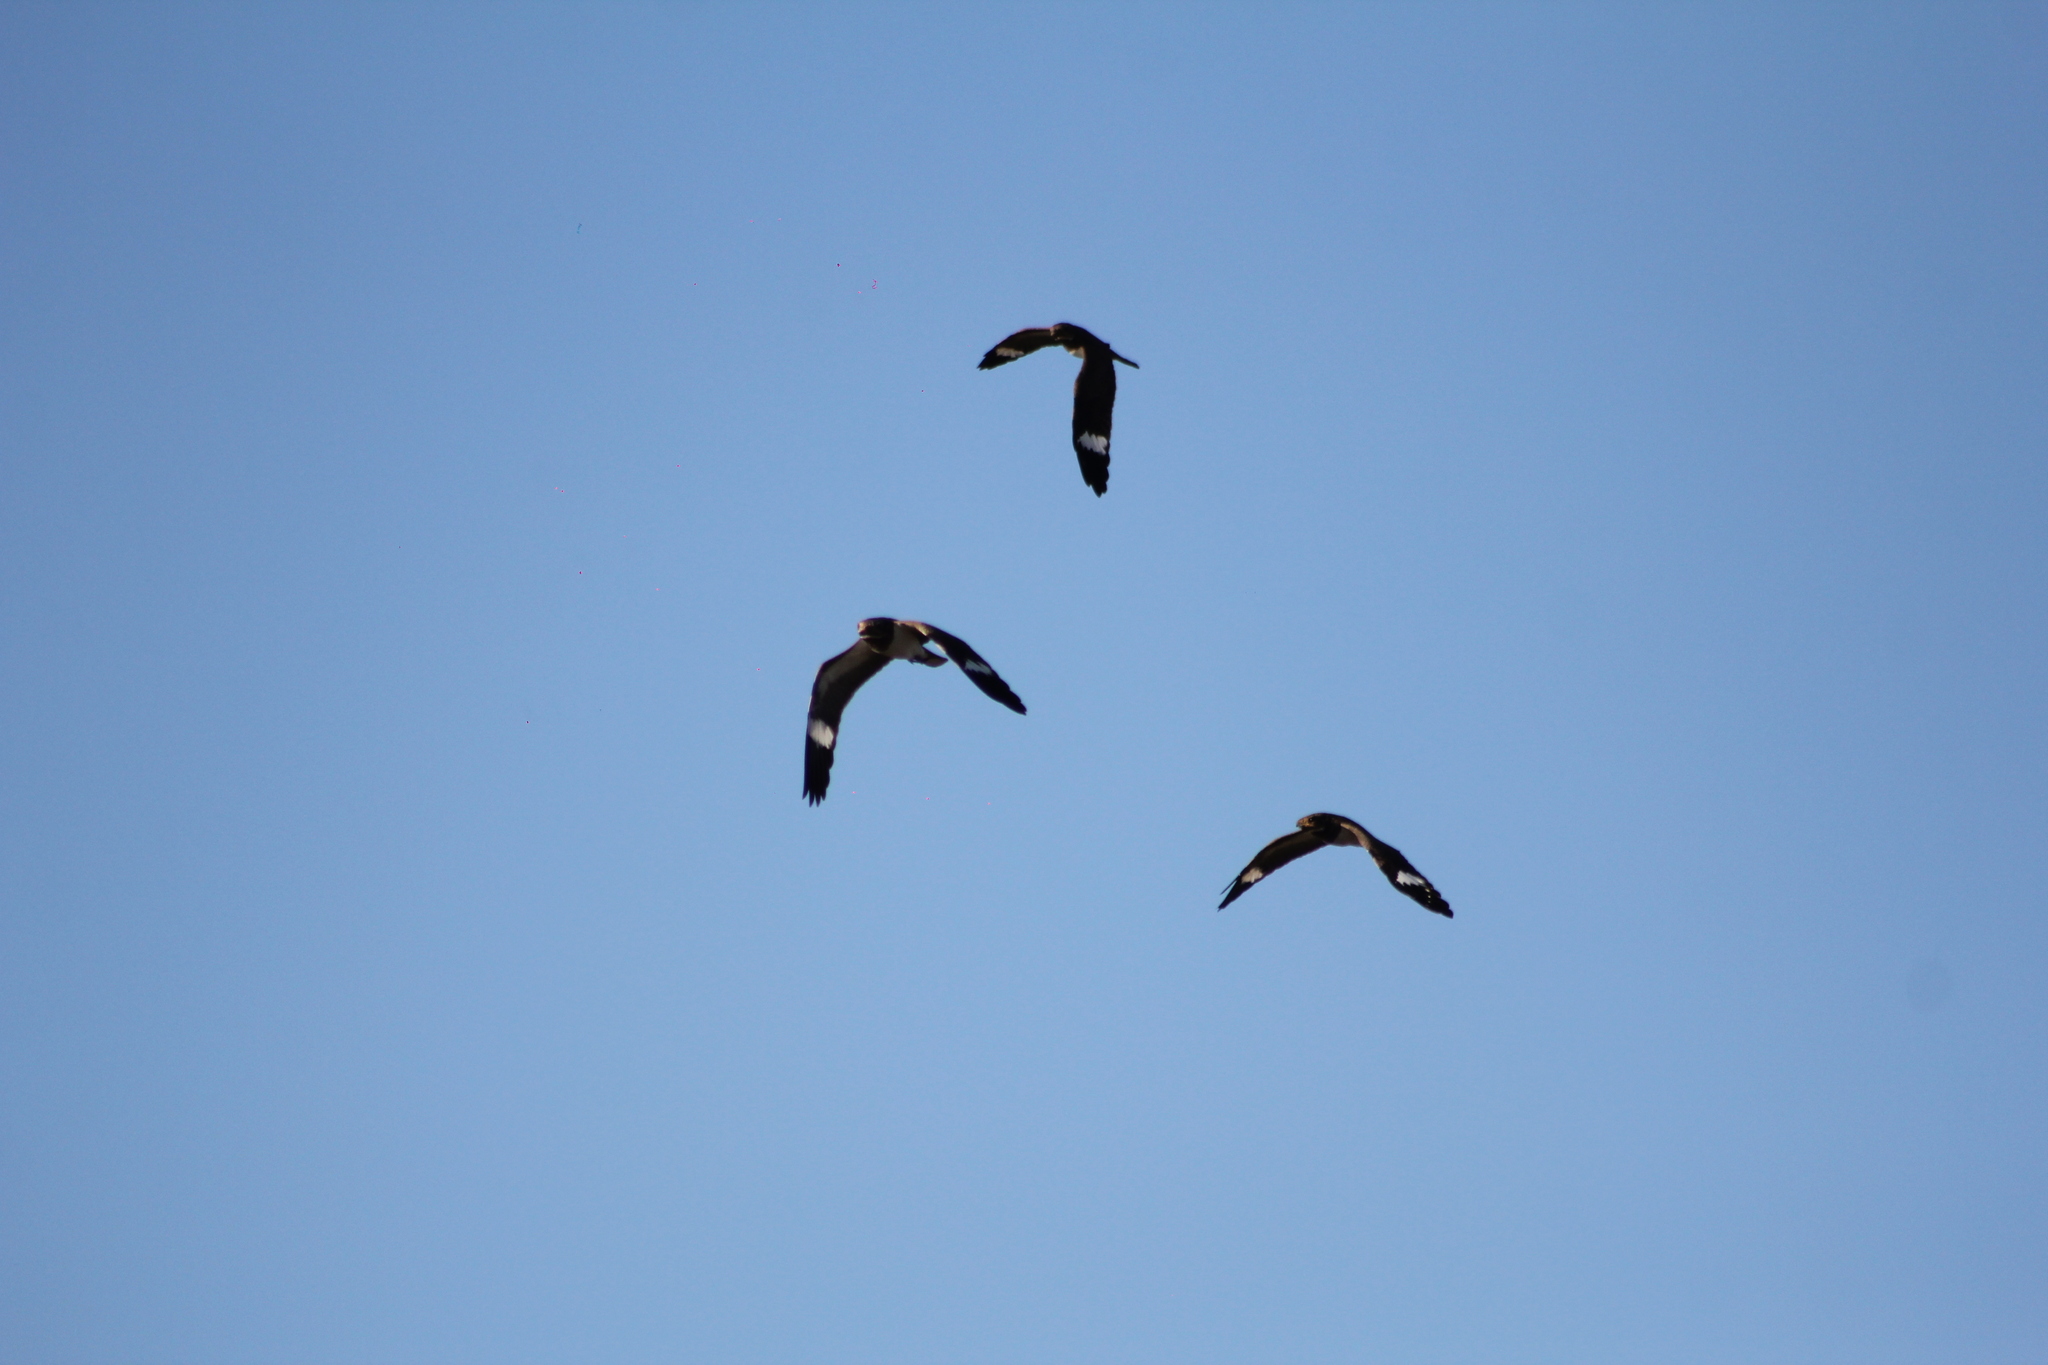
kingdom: Animalia
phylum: Chordata
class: Aves
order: Caprimulgiformes
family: Caprimulgidae
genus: Chordeiles
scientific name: Chordeiles nacunda
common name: Nacunda nighthawk
